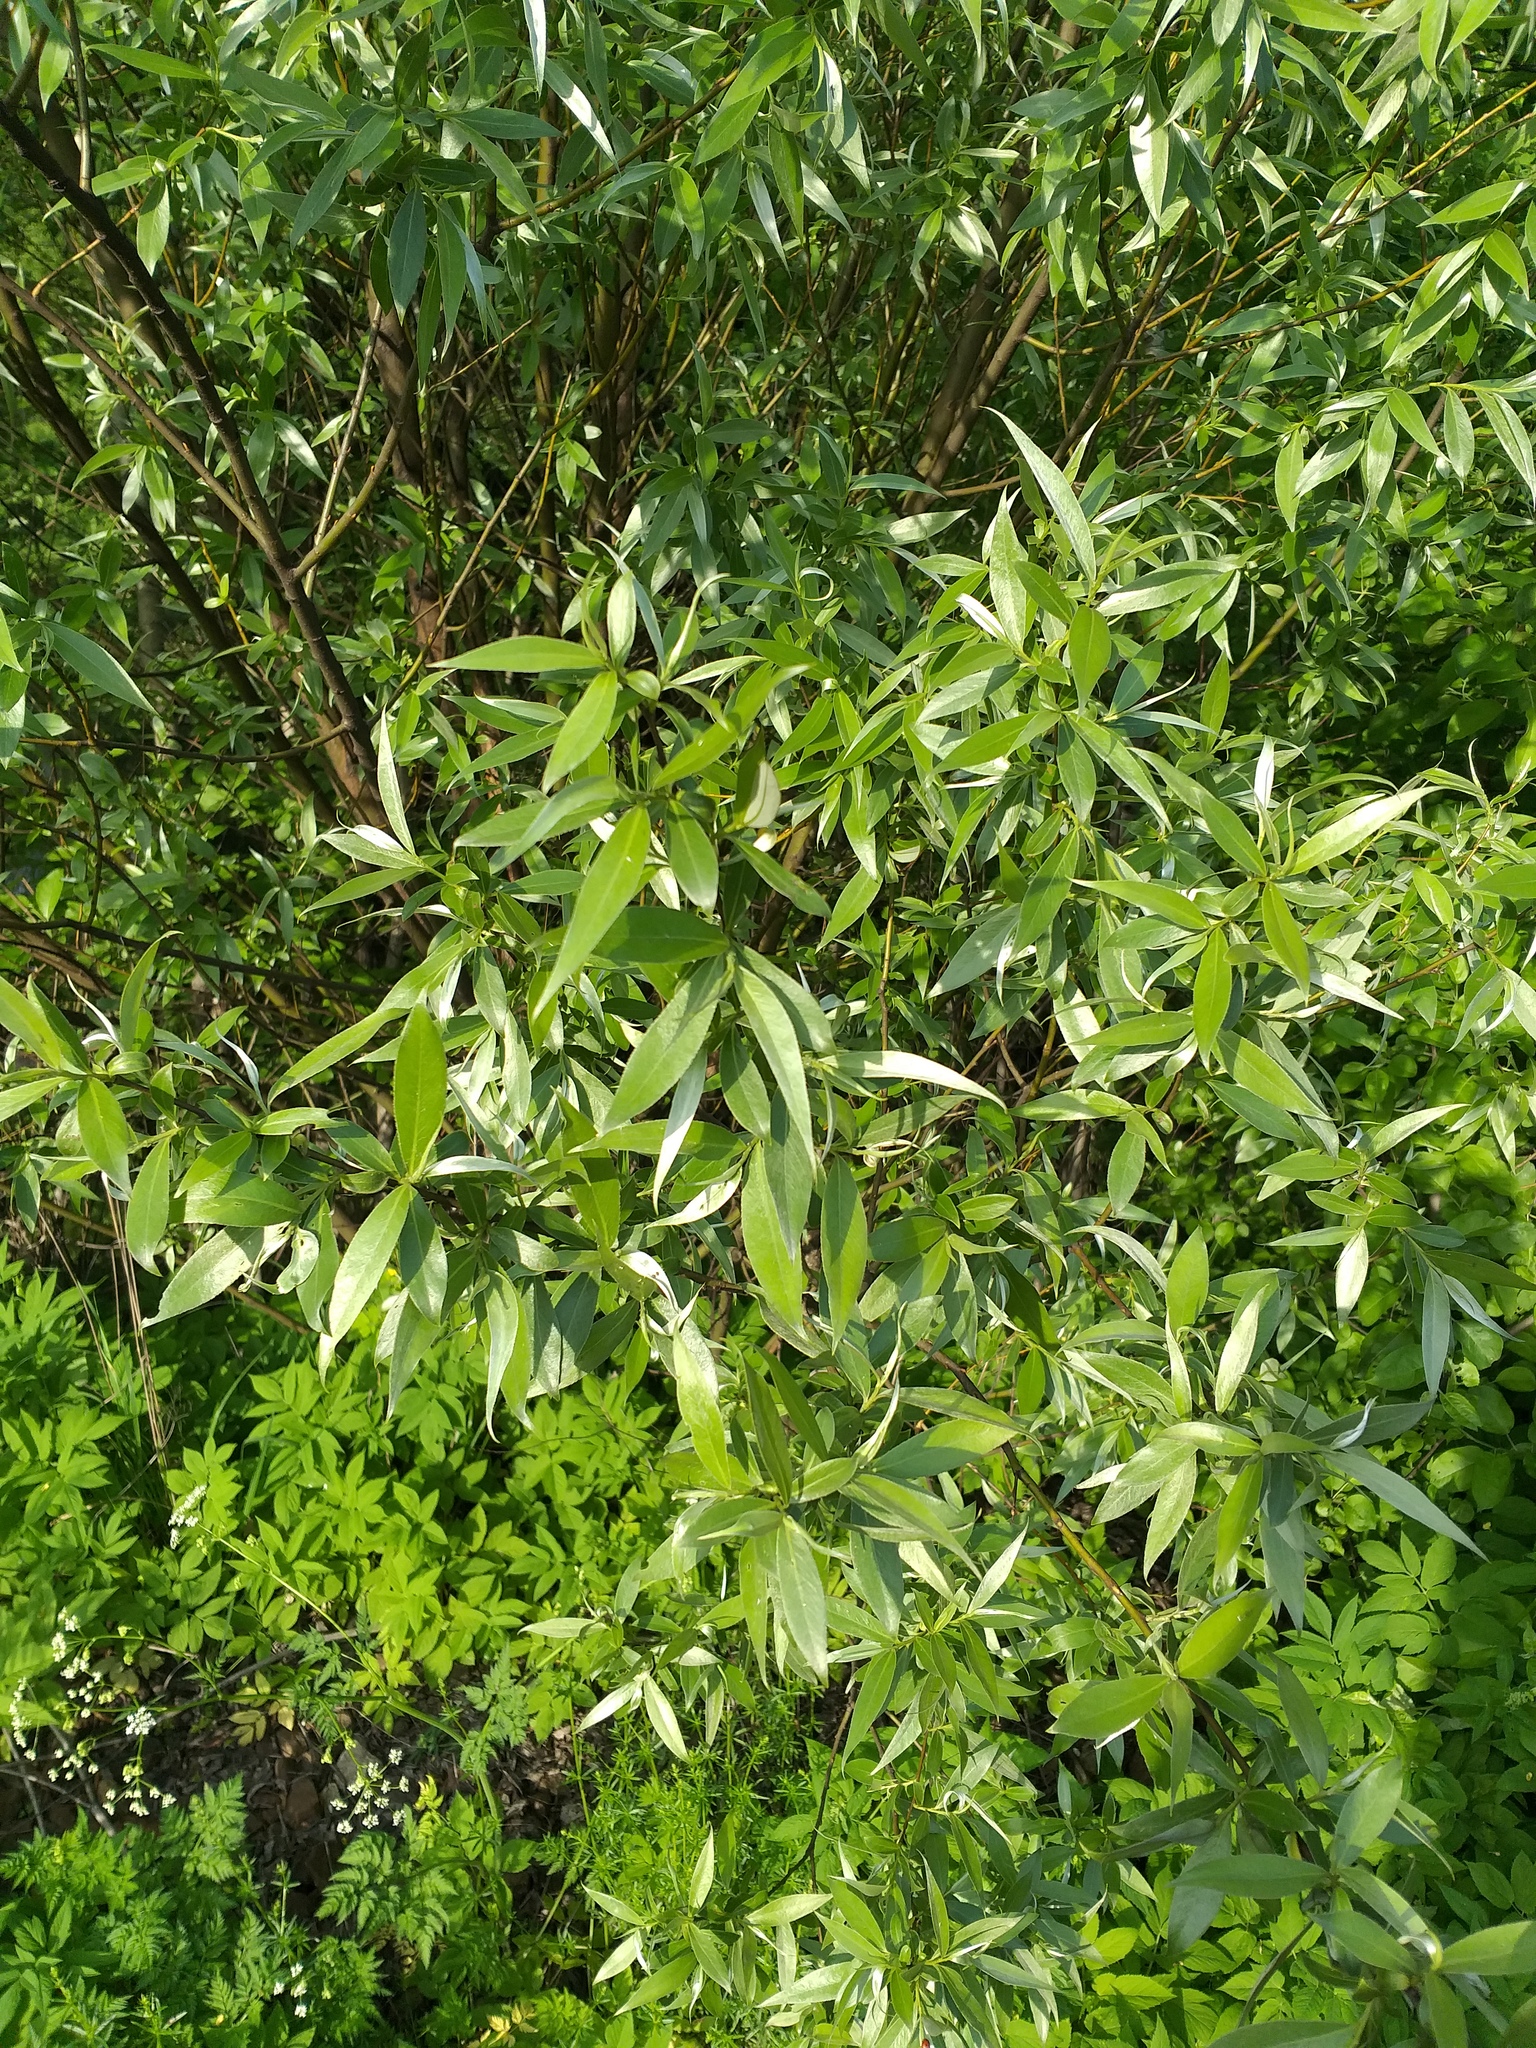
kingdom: Plantae
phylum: Tracheophyta
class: Magnoliopsida
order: Malpighiales
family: Salicaceae
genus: Salix
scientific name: Salix alba
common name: White willow
